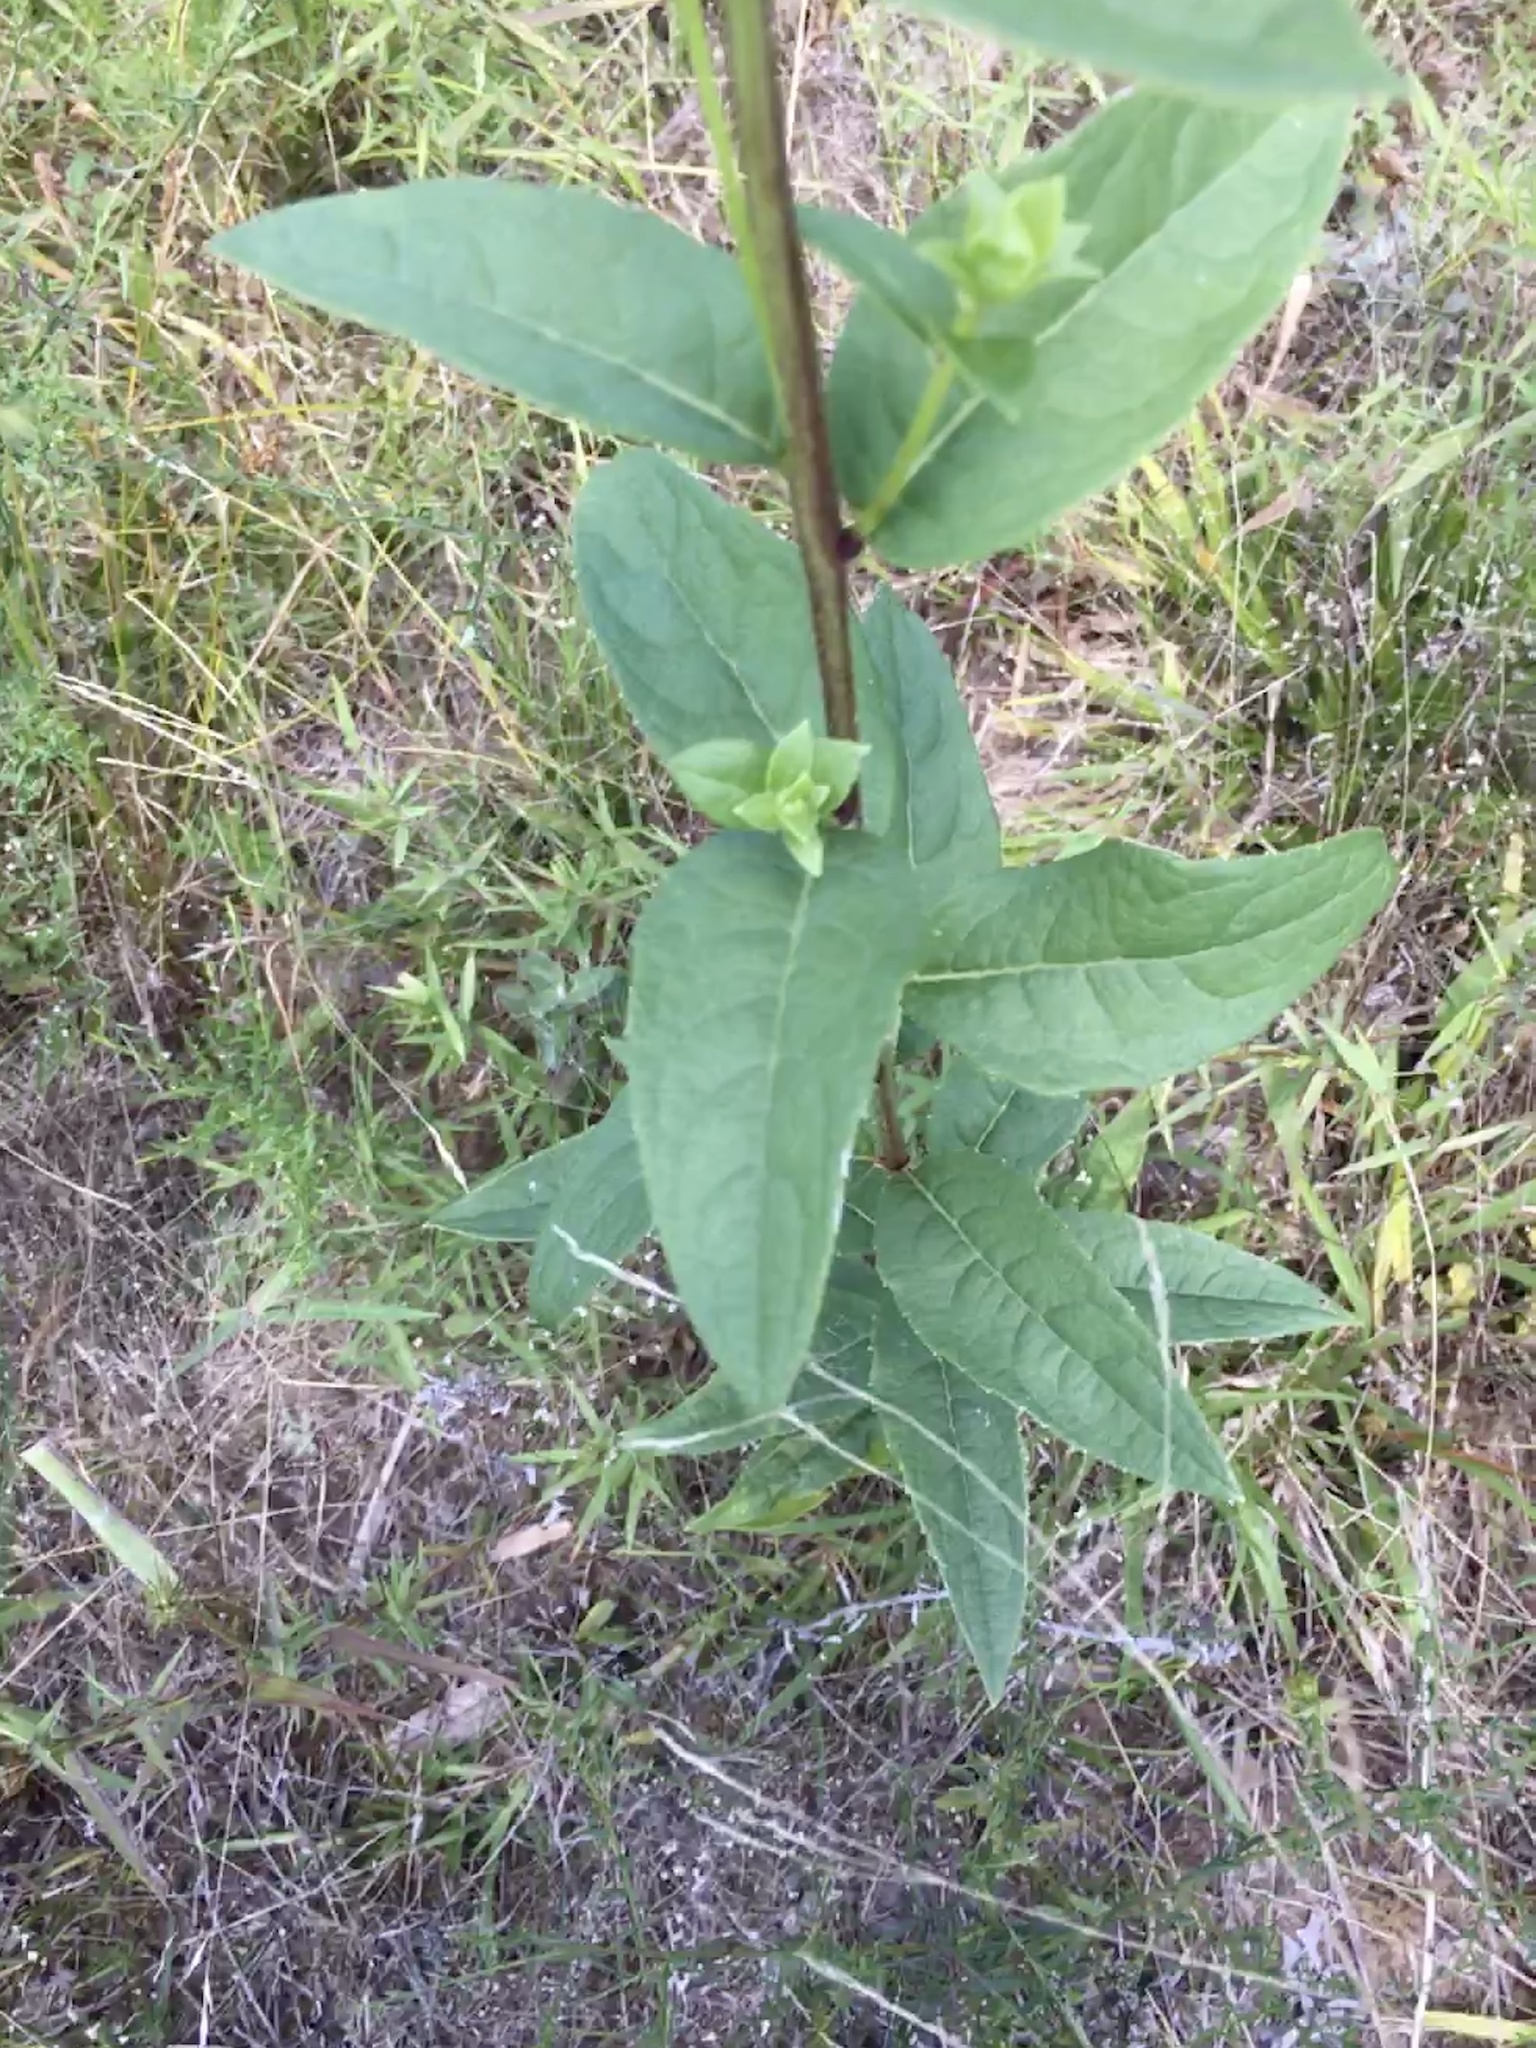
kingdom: Plantae
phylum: Tracheophyta
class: Magnoliopsida
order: Asterales
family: Asteraceae
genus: Silphium
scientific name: Silphium asteriscus
